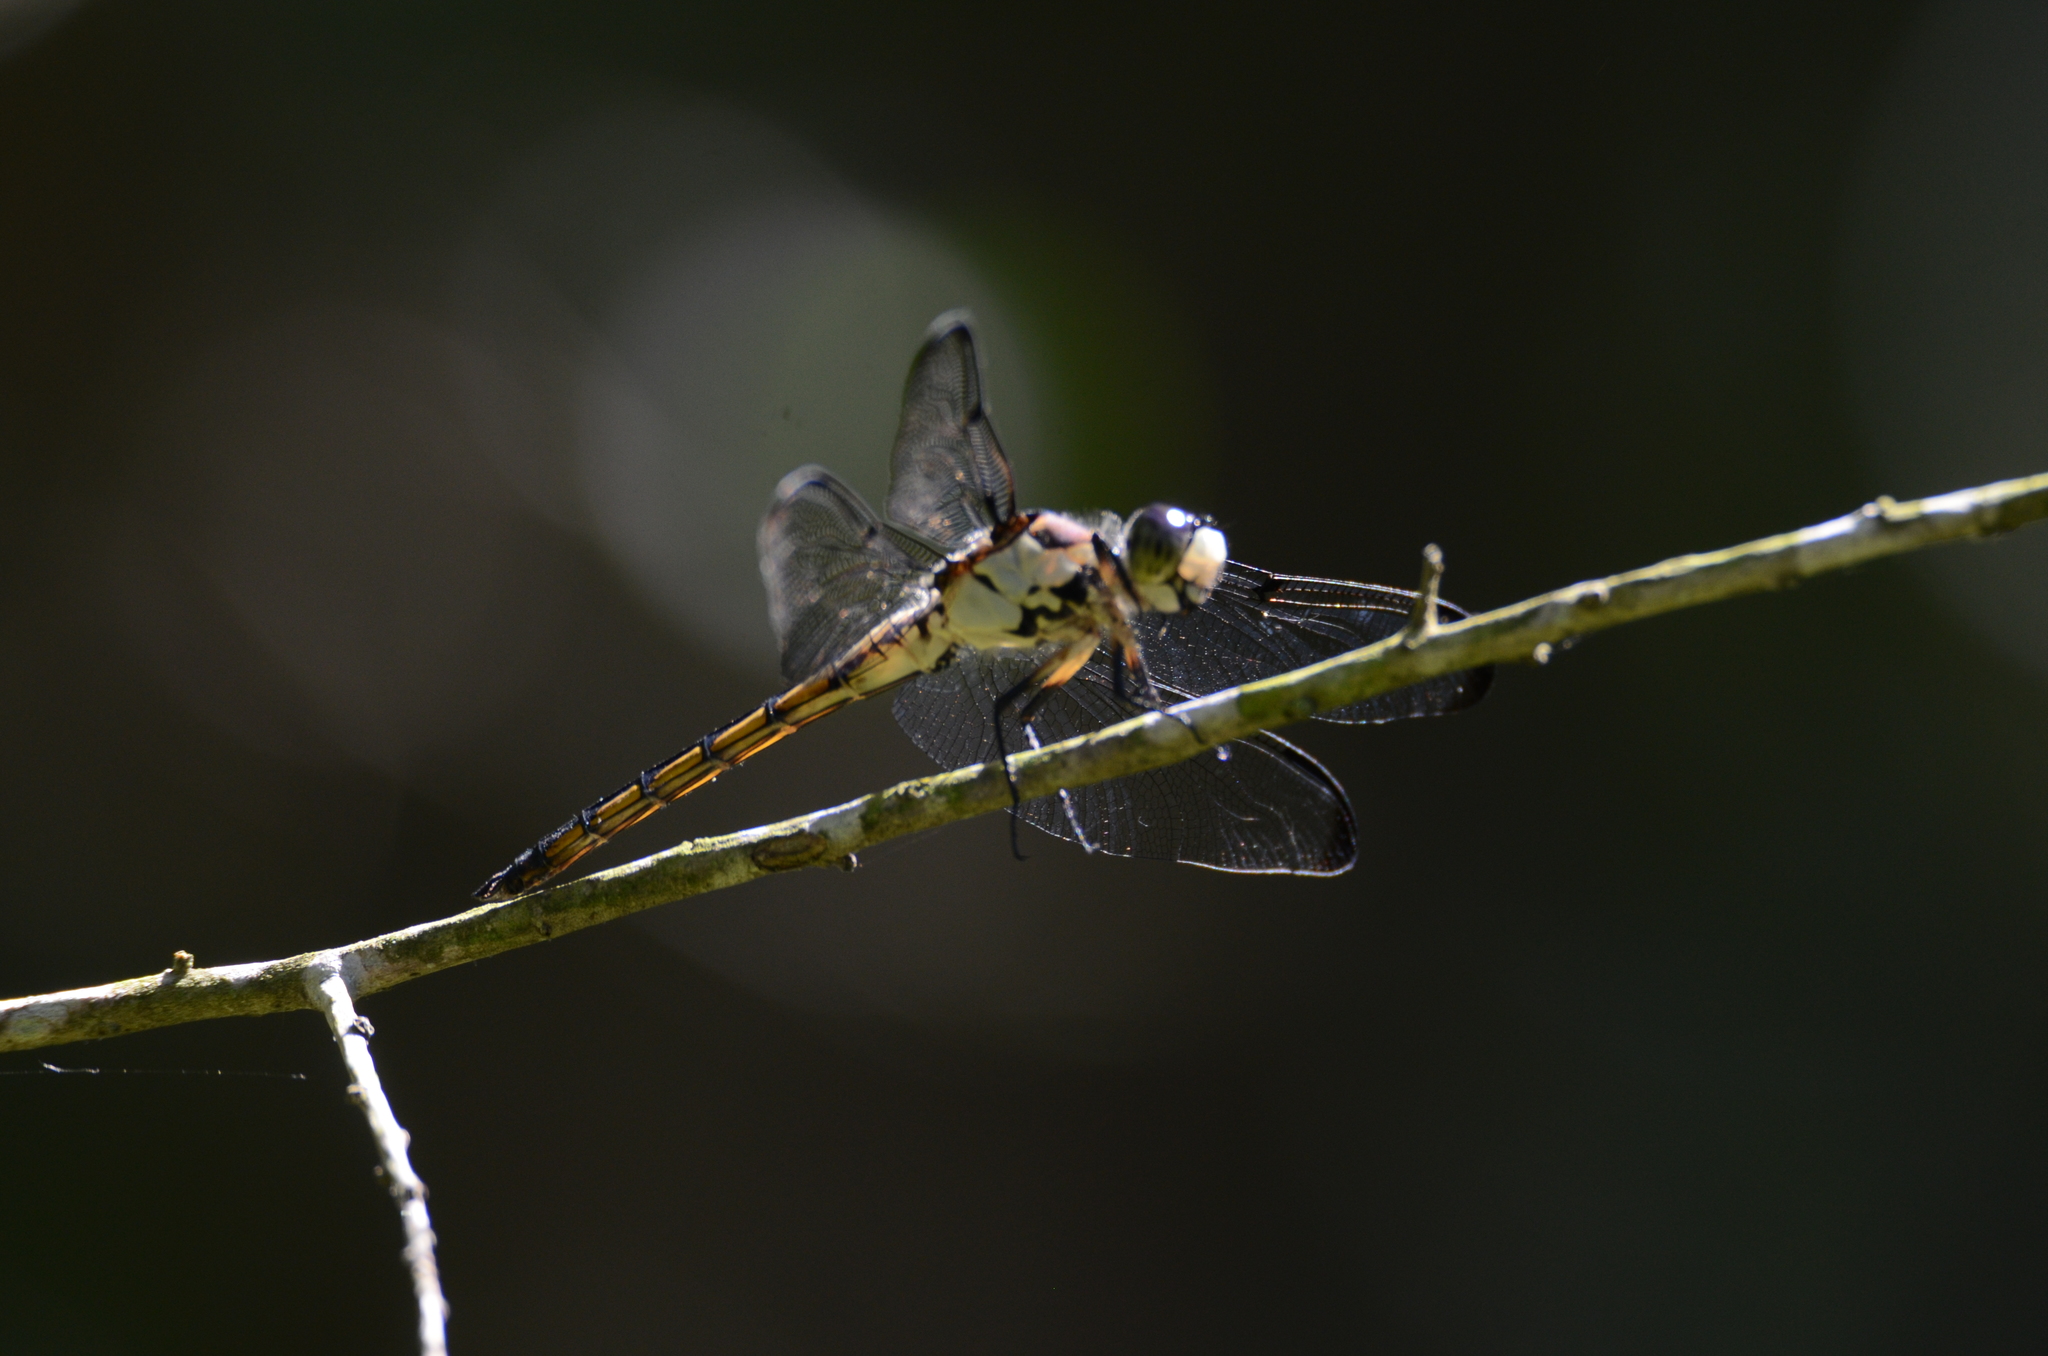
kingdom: Animalia
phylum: Arthropoda
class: Insecta
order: Odonata
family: Libellulidae
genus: Libellula
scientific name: Libellula vibrans
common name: Great blue skimmer
